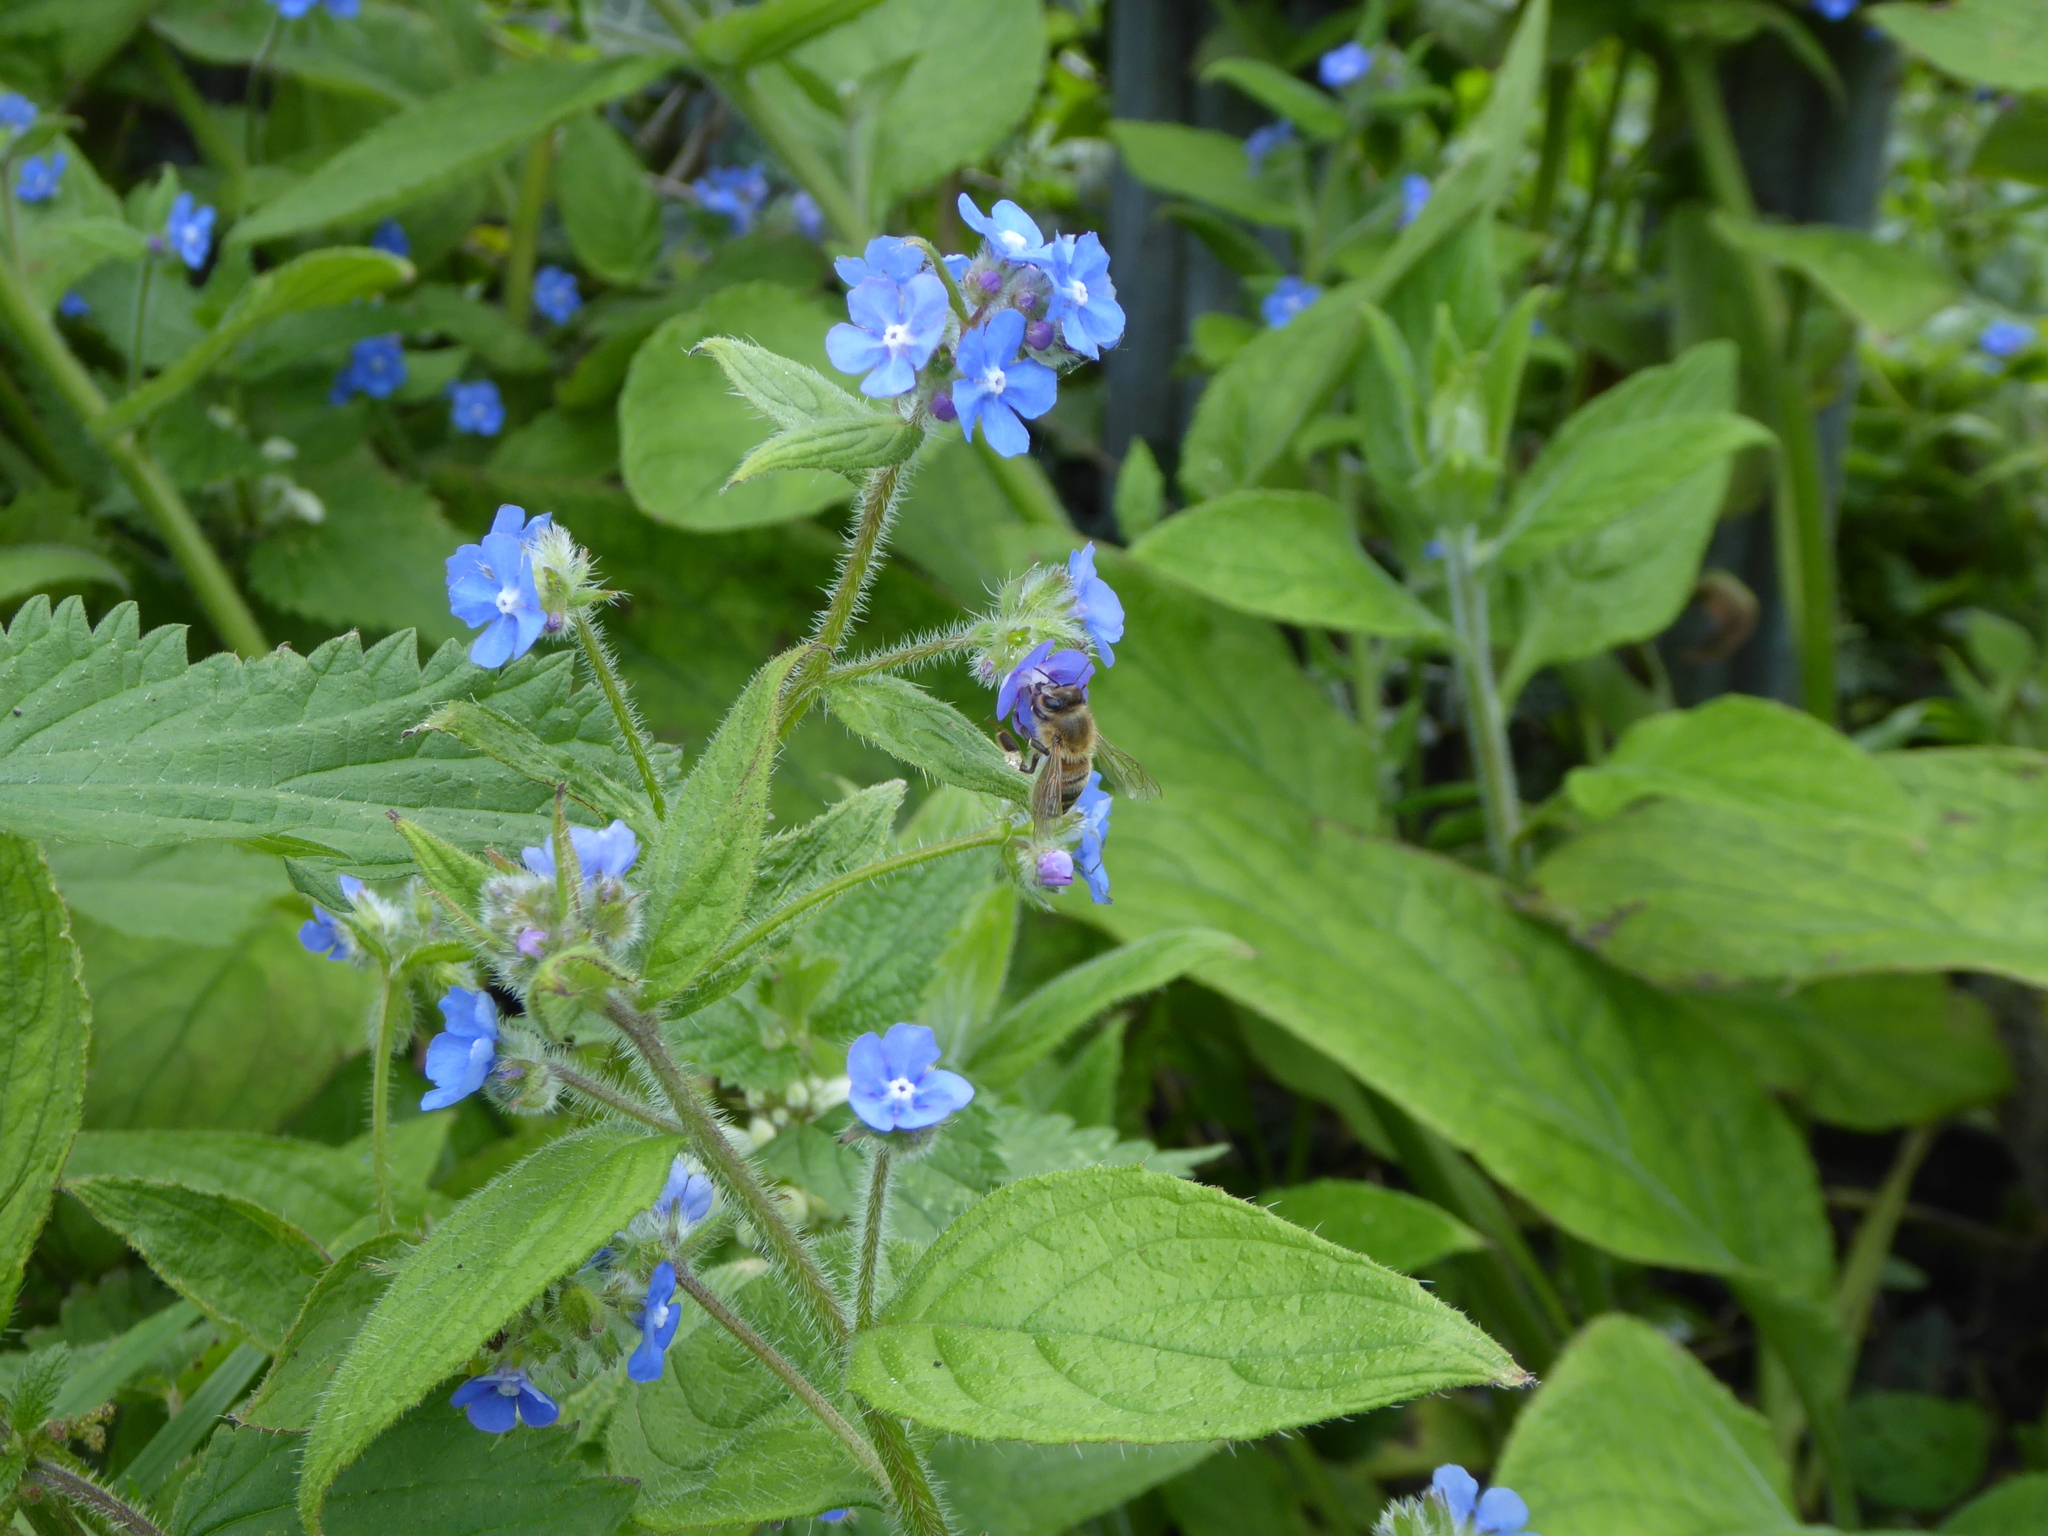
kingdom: Animalia
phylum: Arthropoda
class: Insecta
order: Hymenoptera
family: Apidae
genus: Apis
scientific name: Apis mellifera
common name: Honey bee
